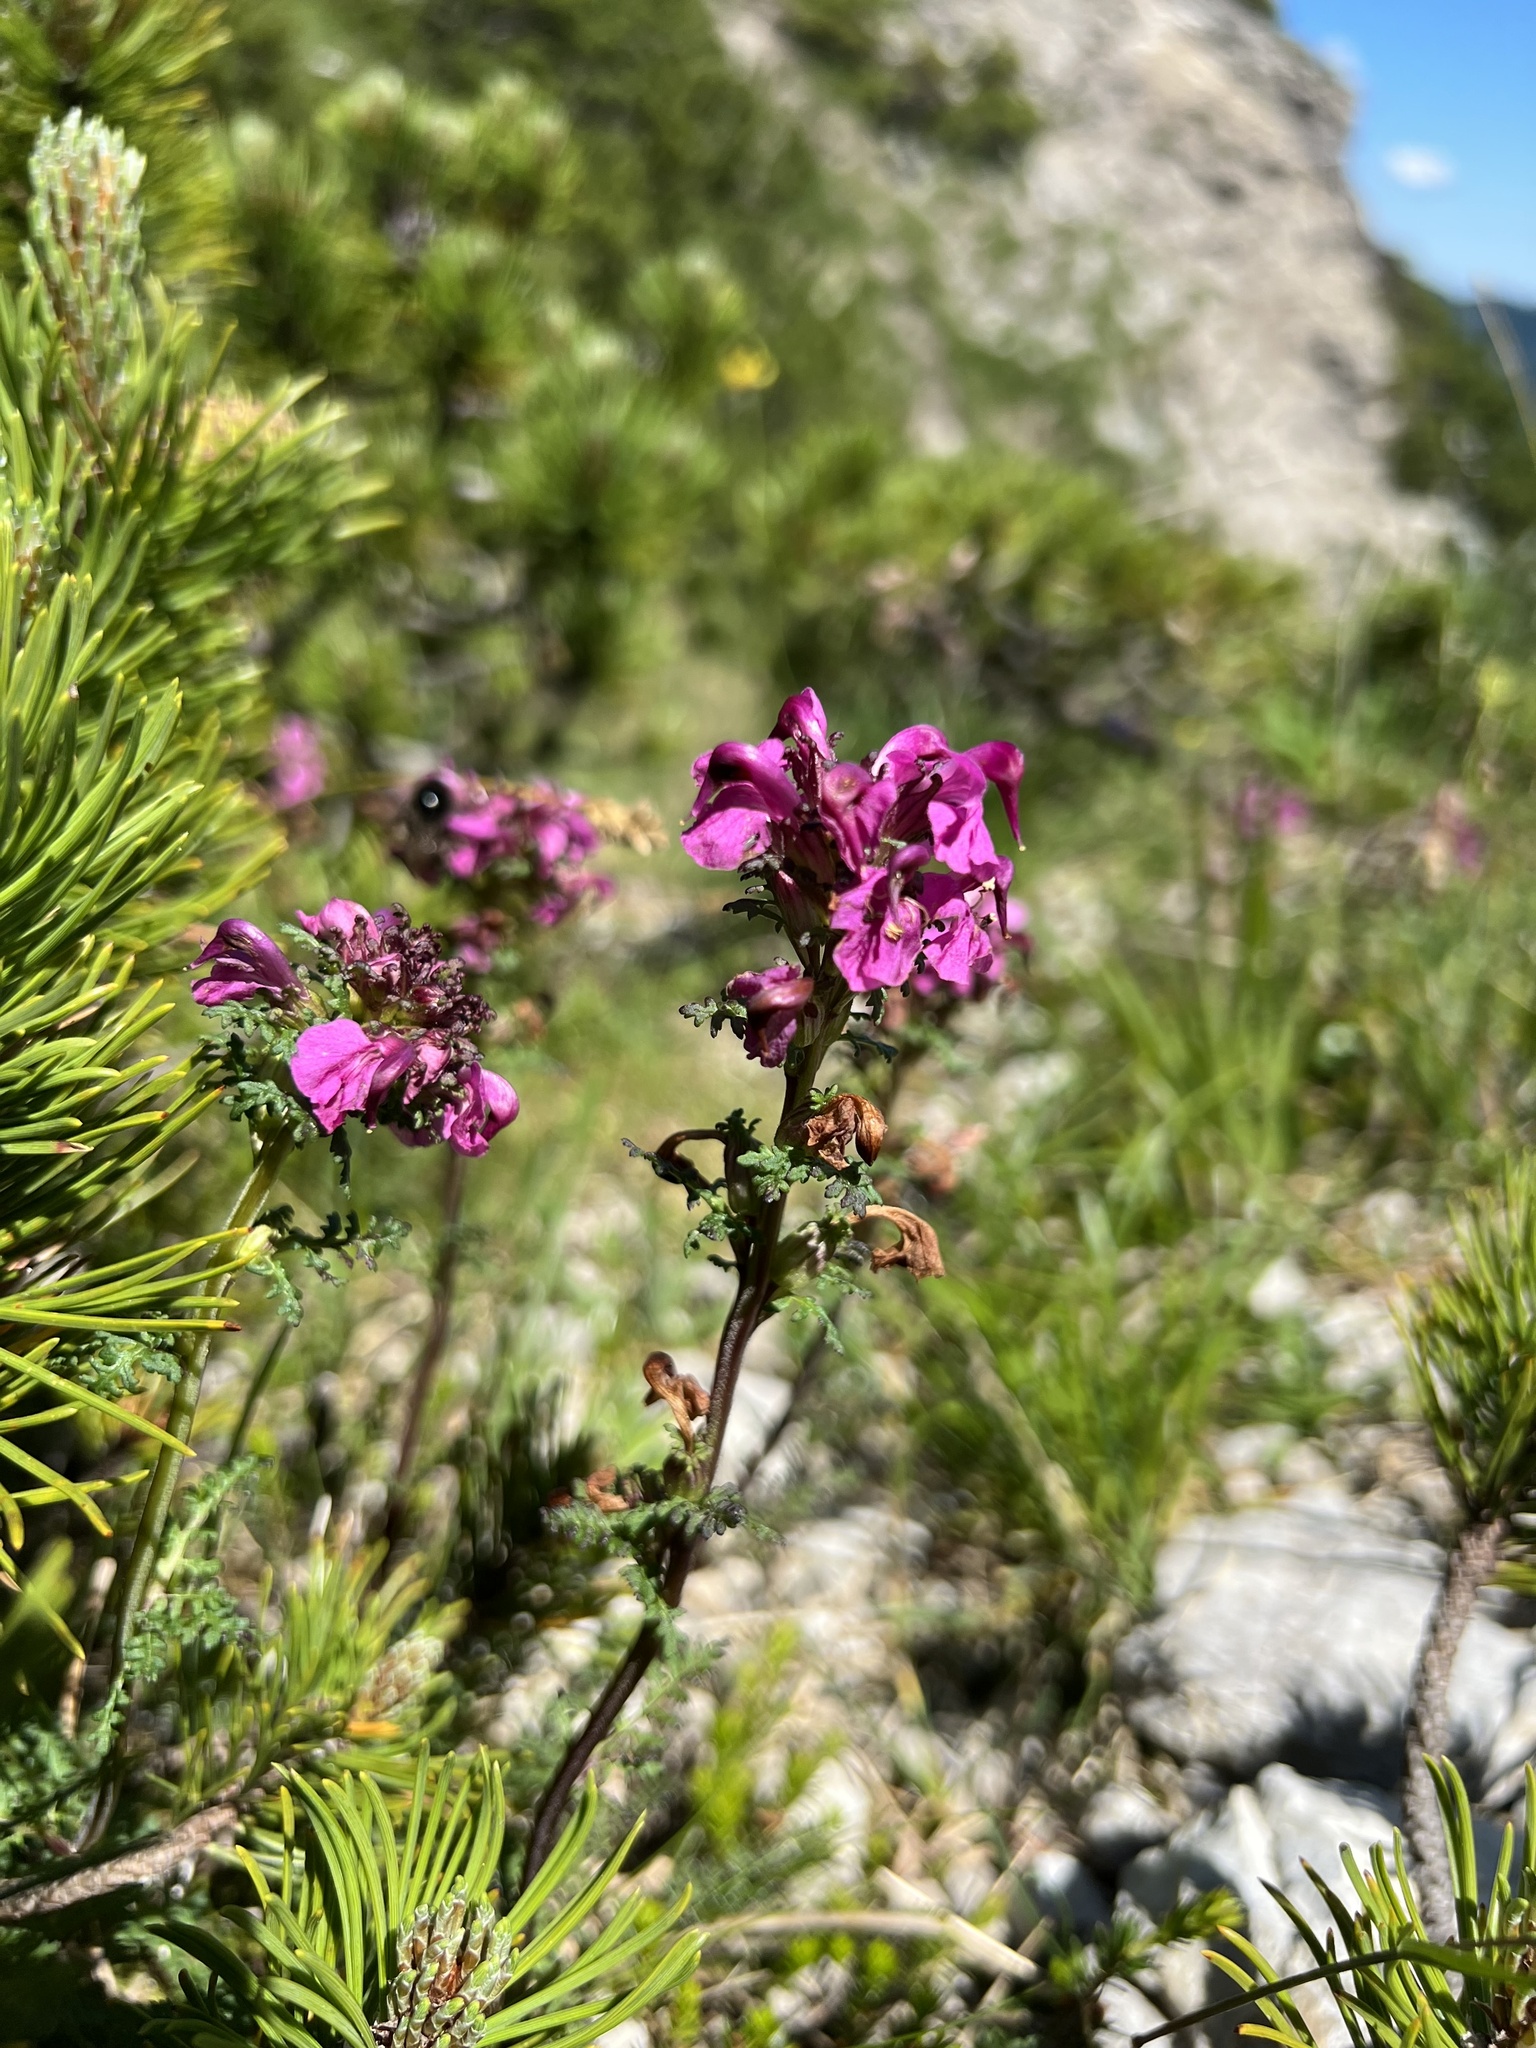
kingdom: Plantae
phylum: Tracheophyta
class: Magnoliopsida
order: Lamiales
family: Orobanchaceae
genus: Pedicularis
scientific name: Pedicularis rostratocapitata
